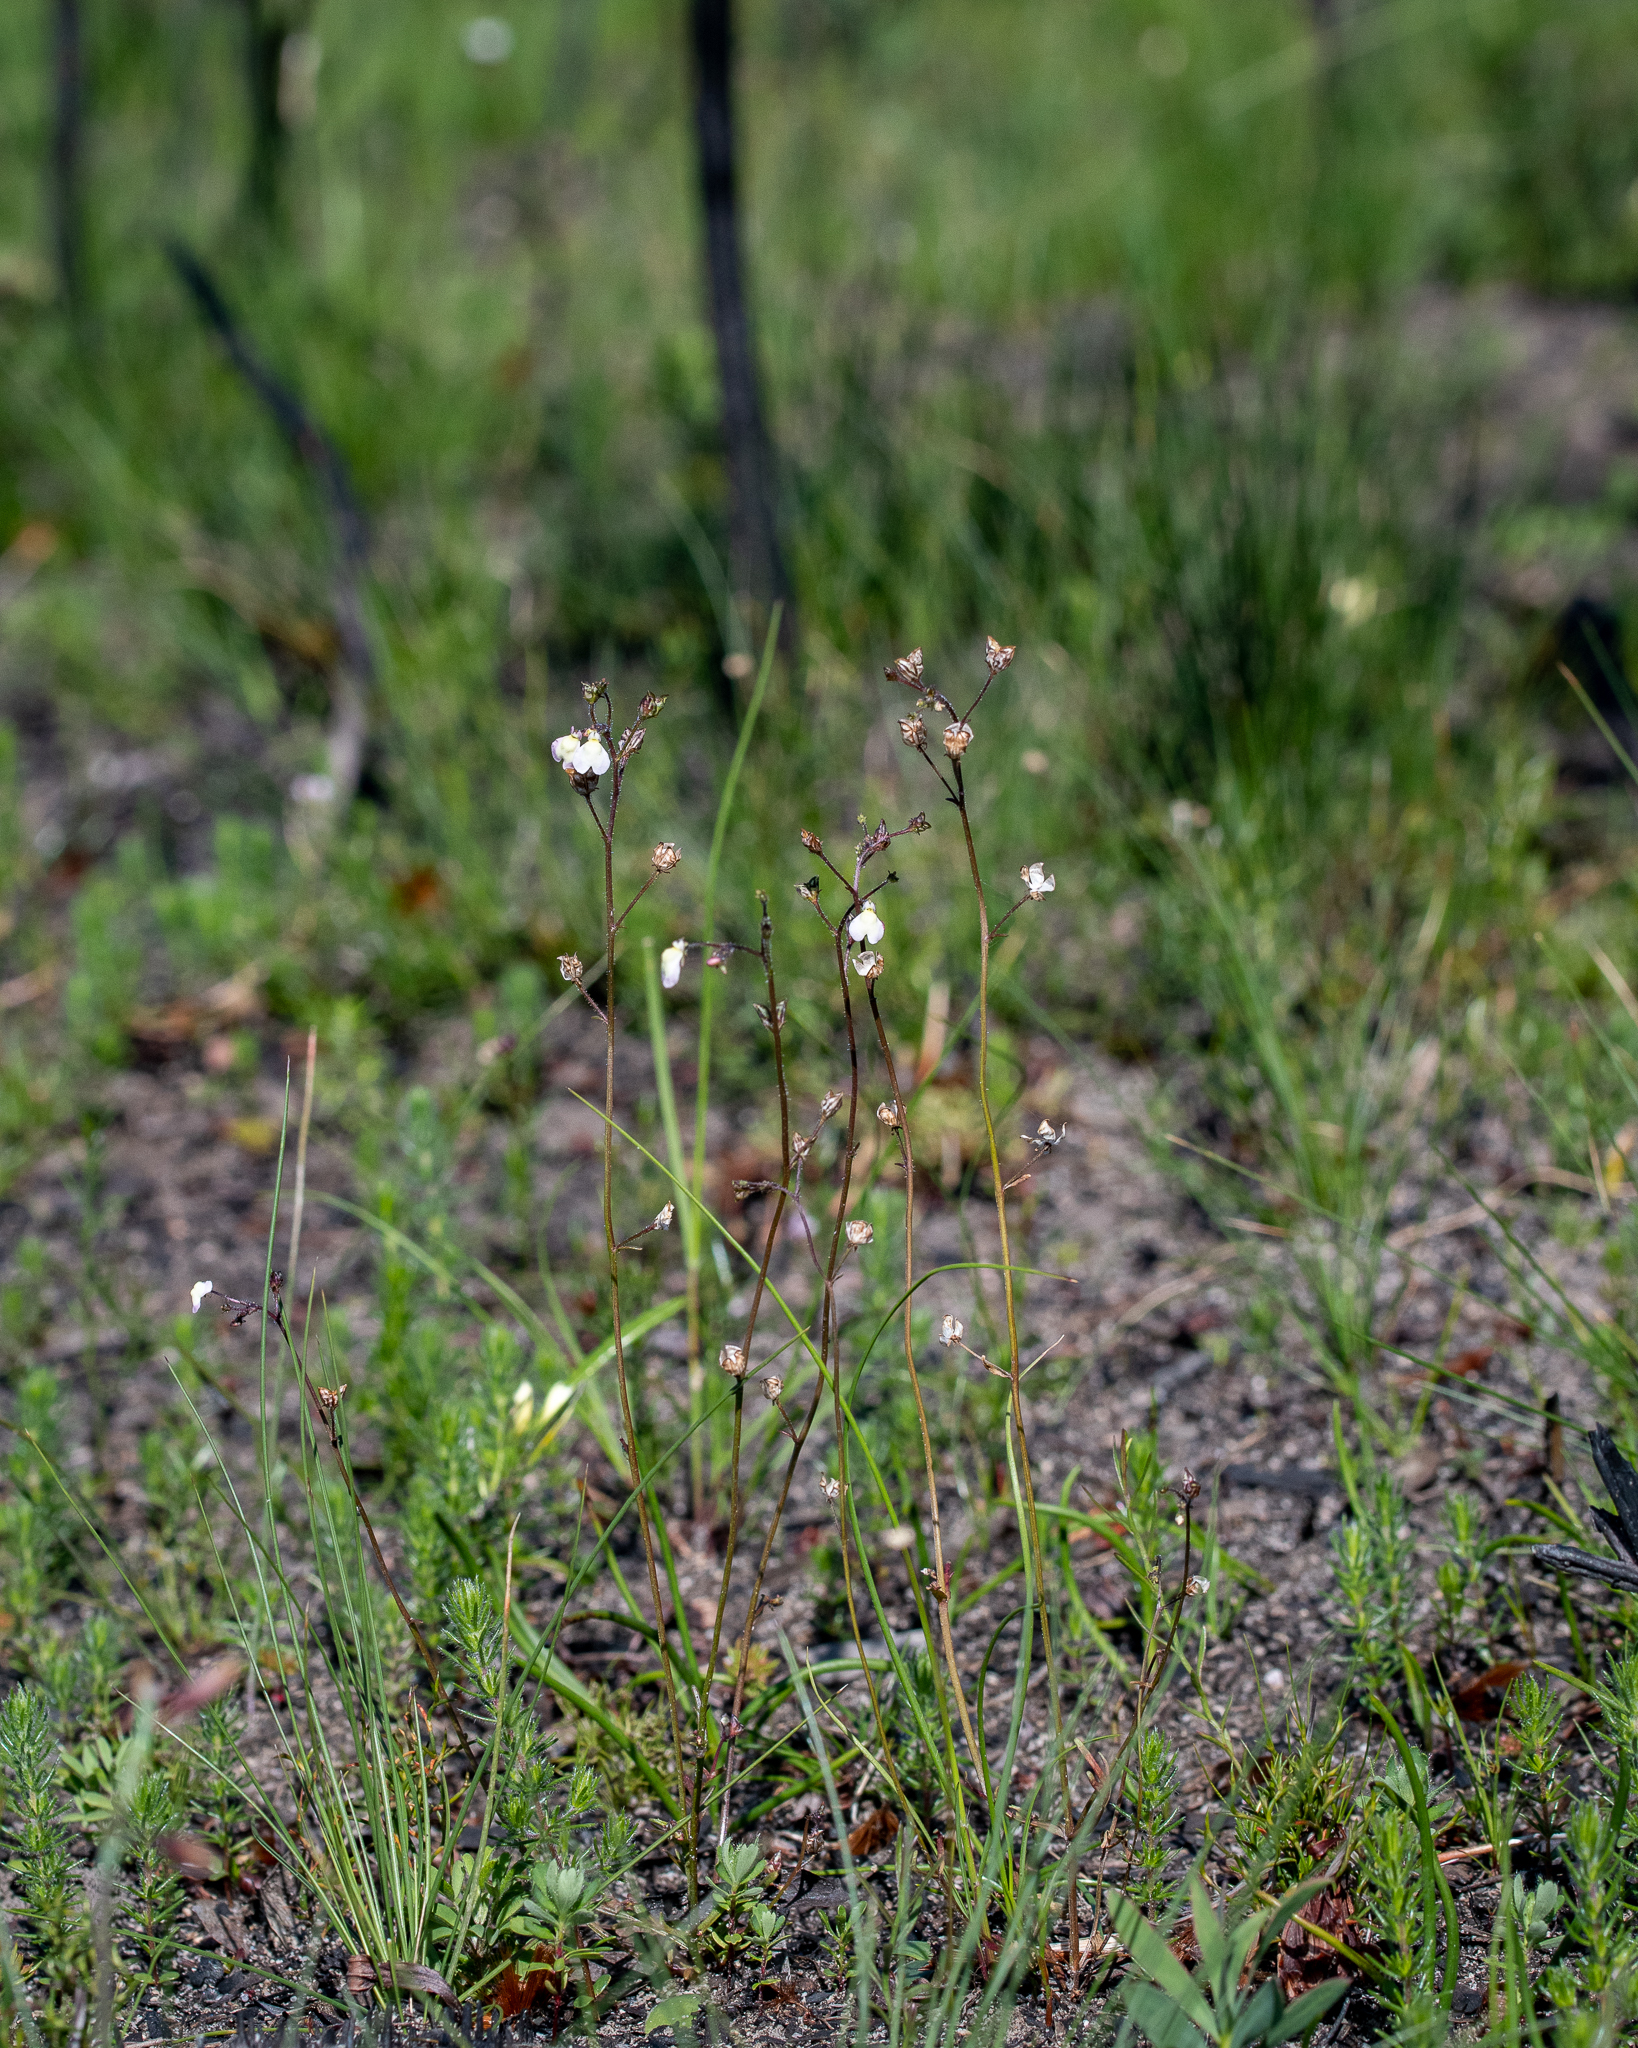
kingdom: Plantae
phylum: Tracheophyta
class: Magnoliopsida
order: Lamiales
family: Scrophulariaceae
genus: Nemesia
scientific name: Nemesia pinnata
